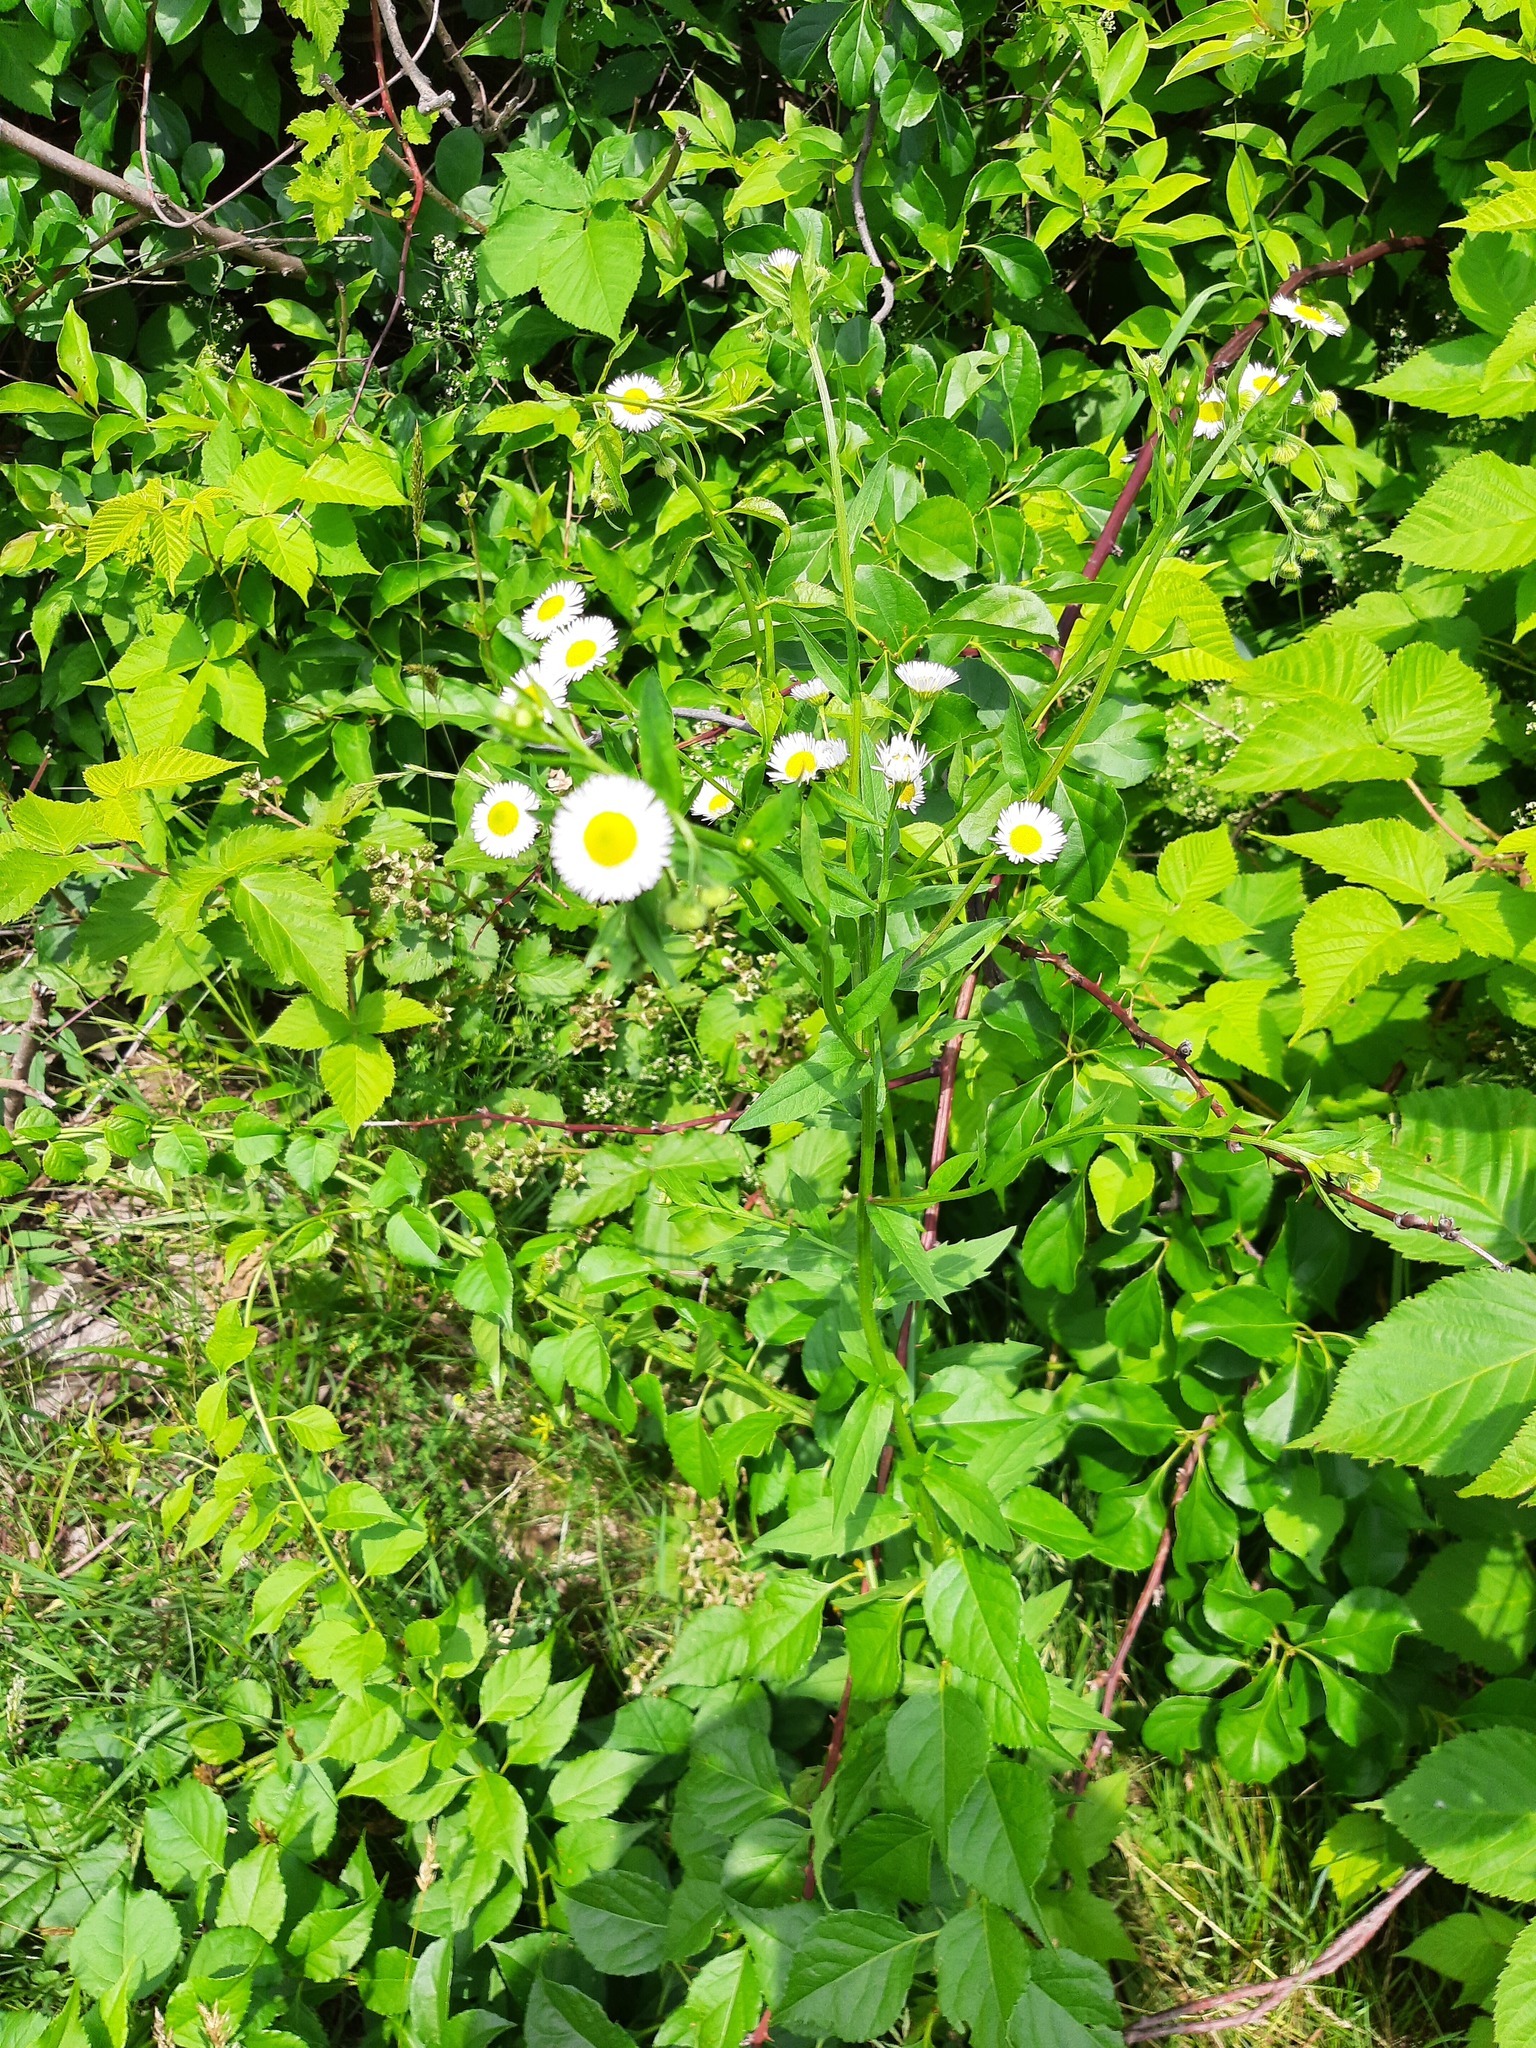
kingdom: Plantae
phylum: Tracheophyta
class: Magnoliopsida
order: Asterales
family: Asteraceae
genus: Erigeron
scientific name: Erigeron annuus
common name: Tall fleabane
